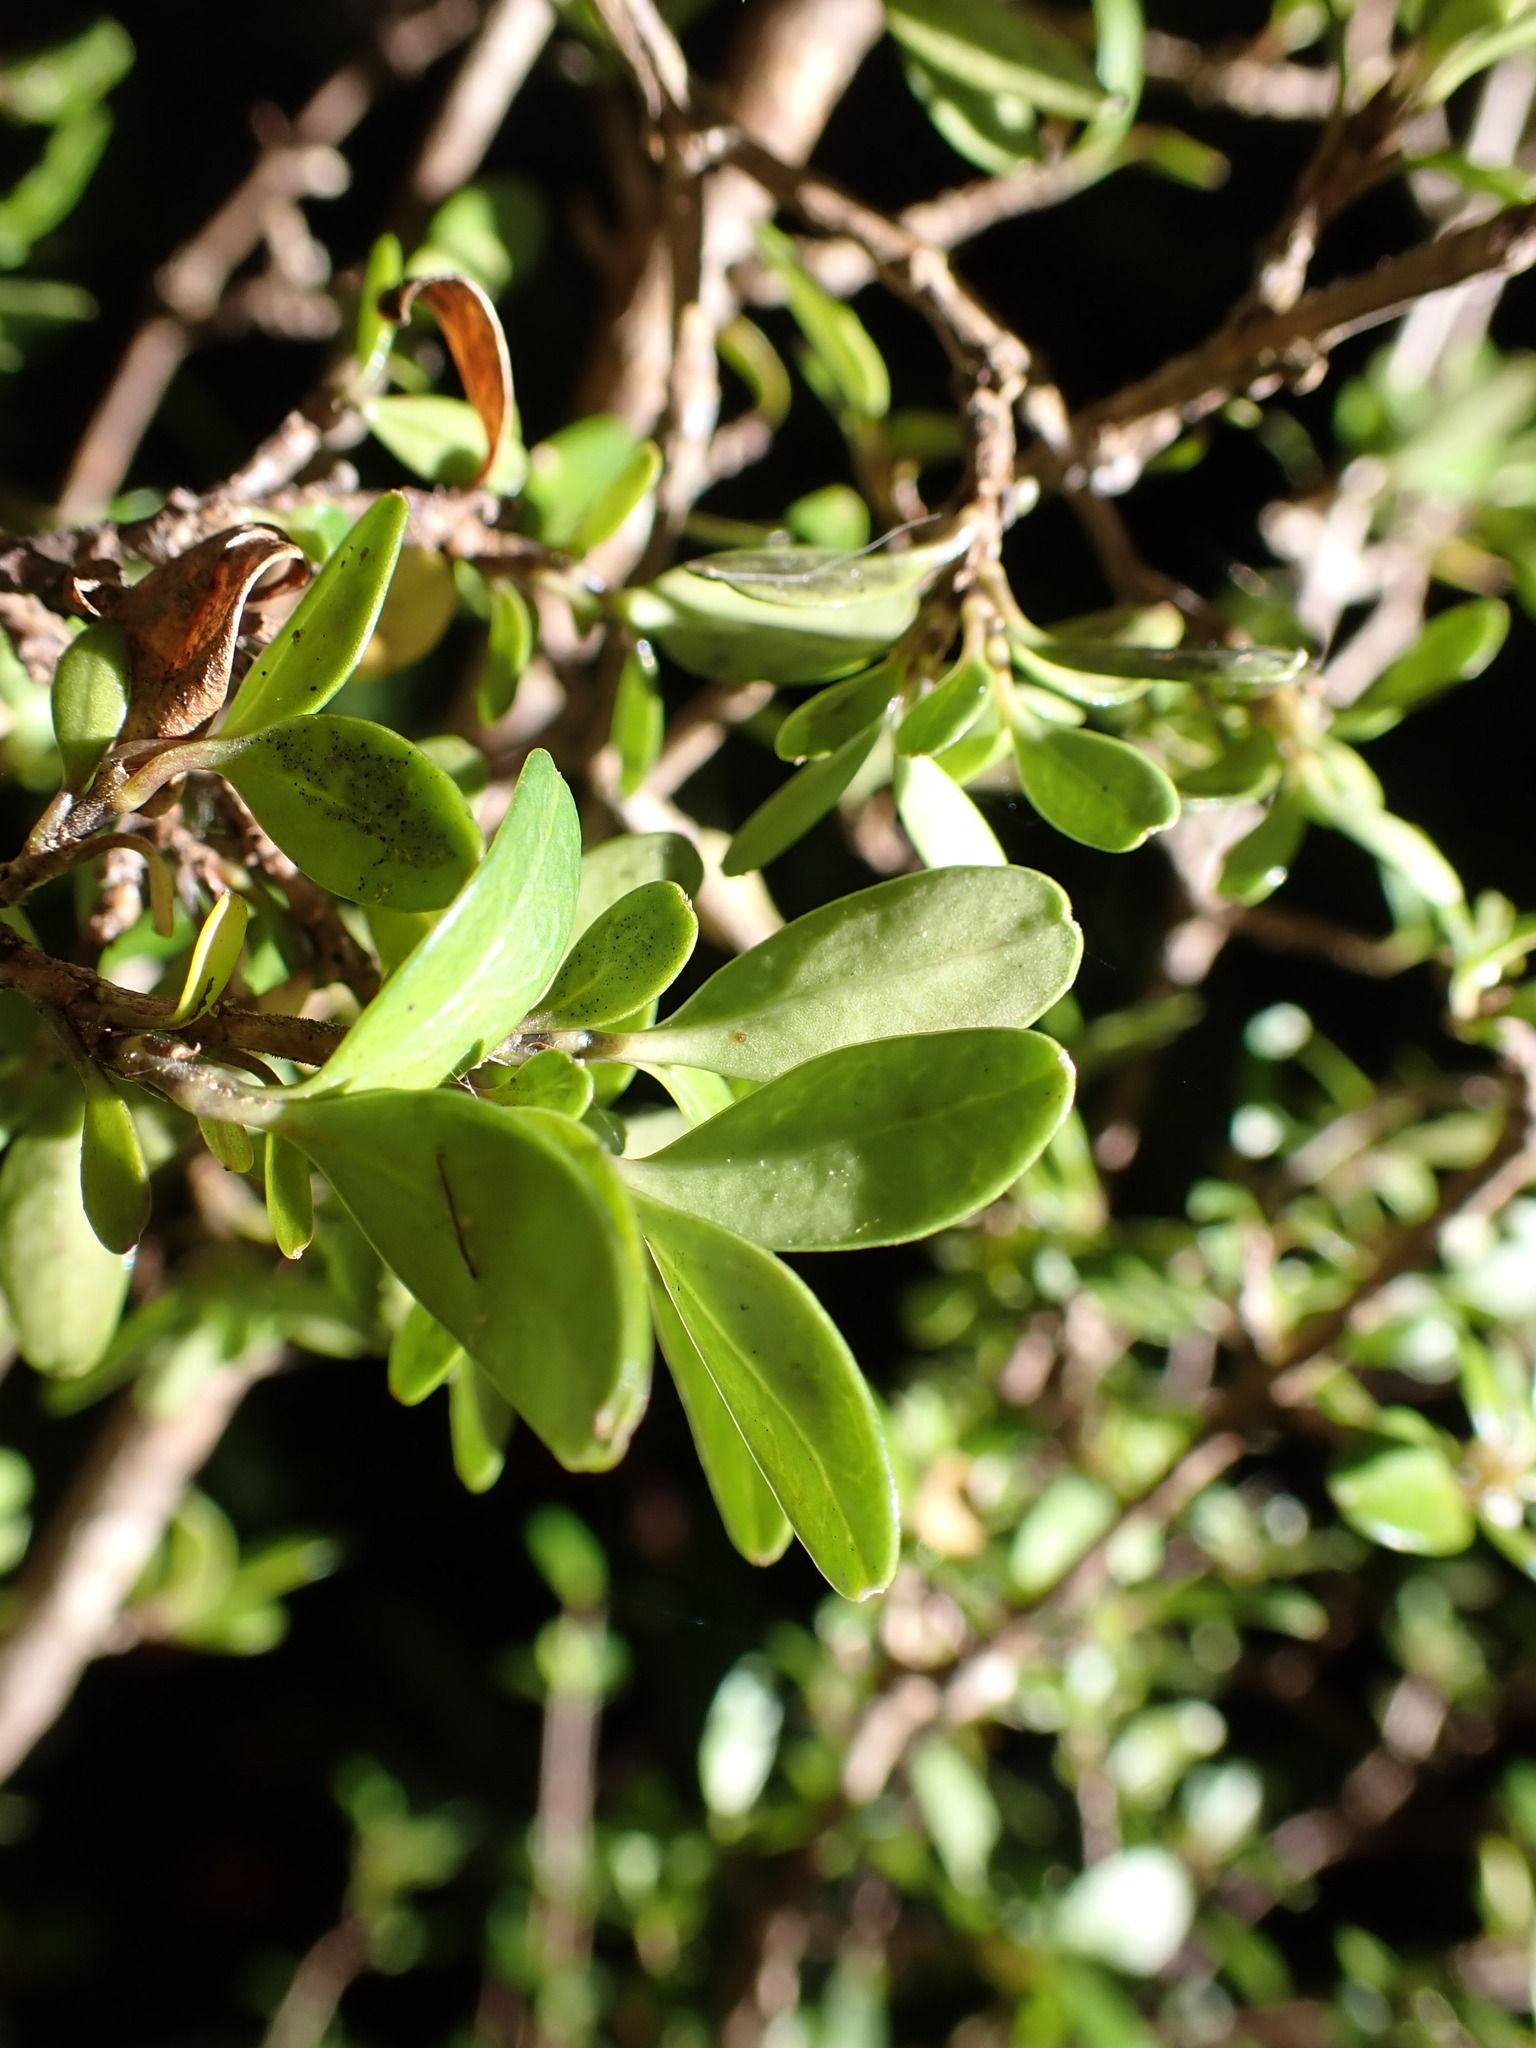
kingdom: Plantae
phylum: Tracheophyta
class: Magnoliopsida
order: Gentianales
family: Rubiaceae
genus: Coprosma
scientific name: Coprosma colensoi
